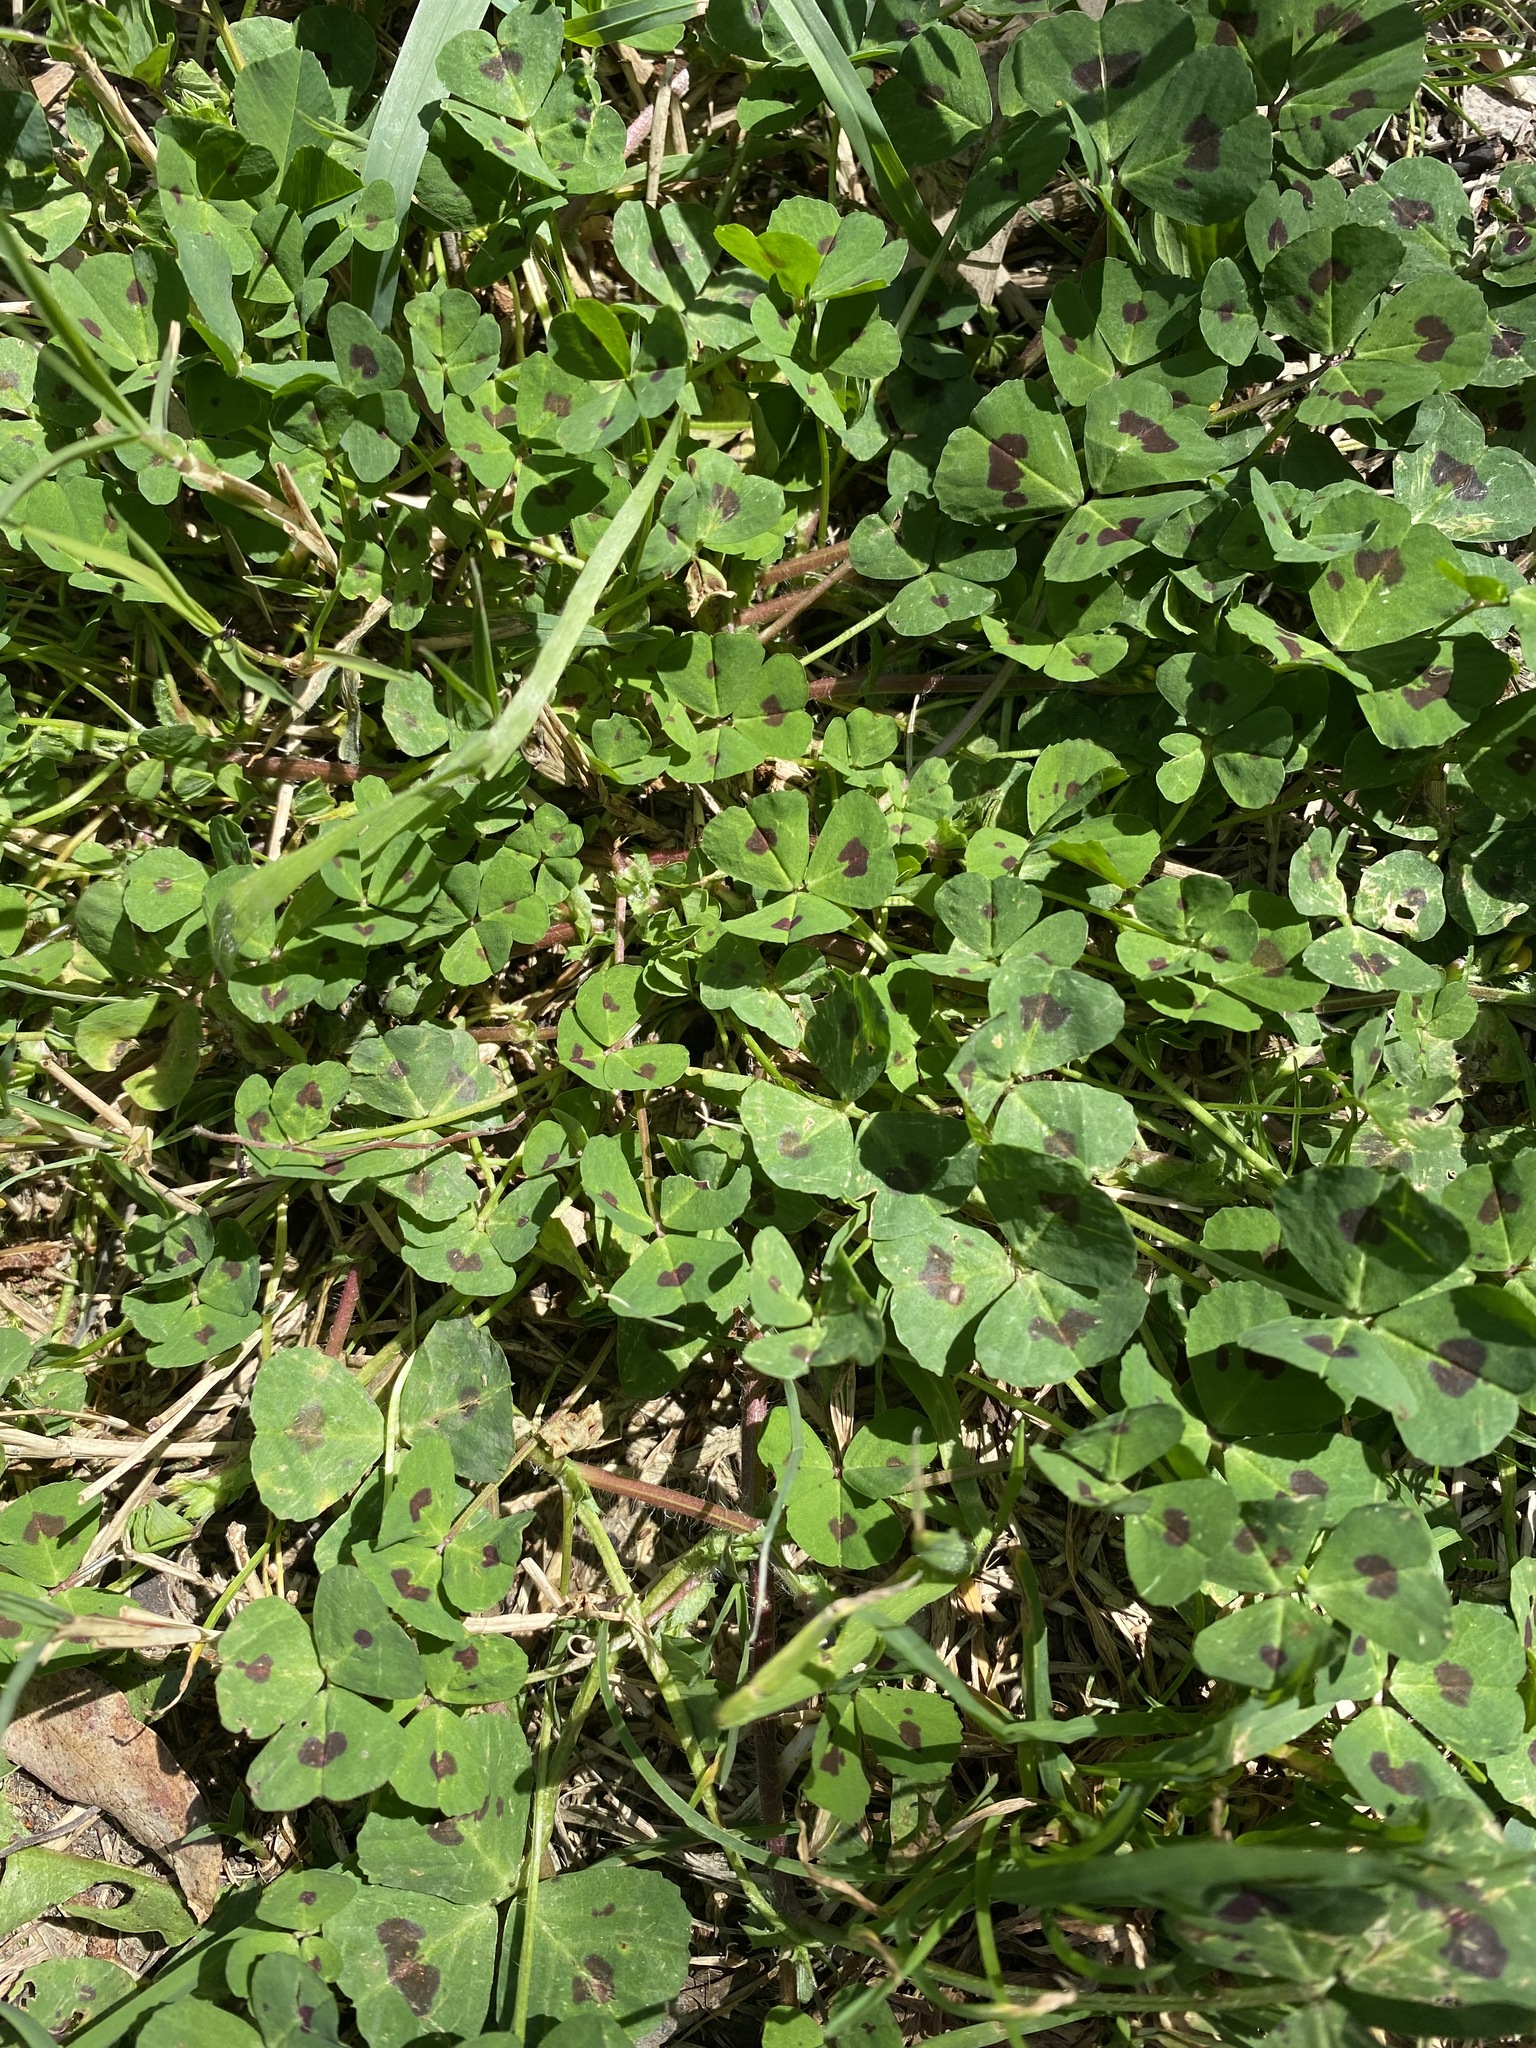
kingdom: Plantae
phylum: Tracheophyta
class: Magnoliopsida
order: Fabales
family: Fabaceae
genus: Medicago
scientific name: Medicago arabica
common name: Spotted medick
